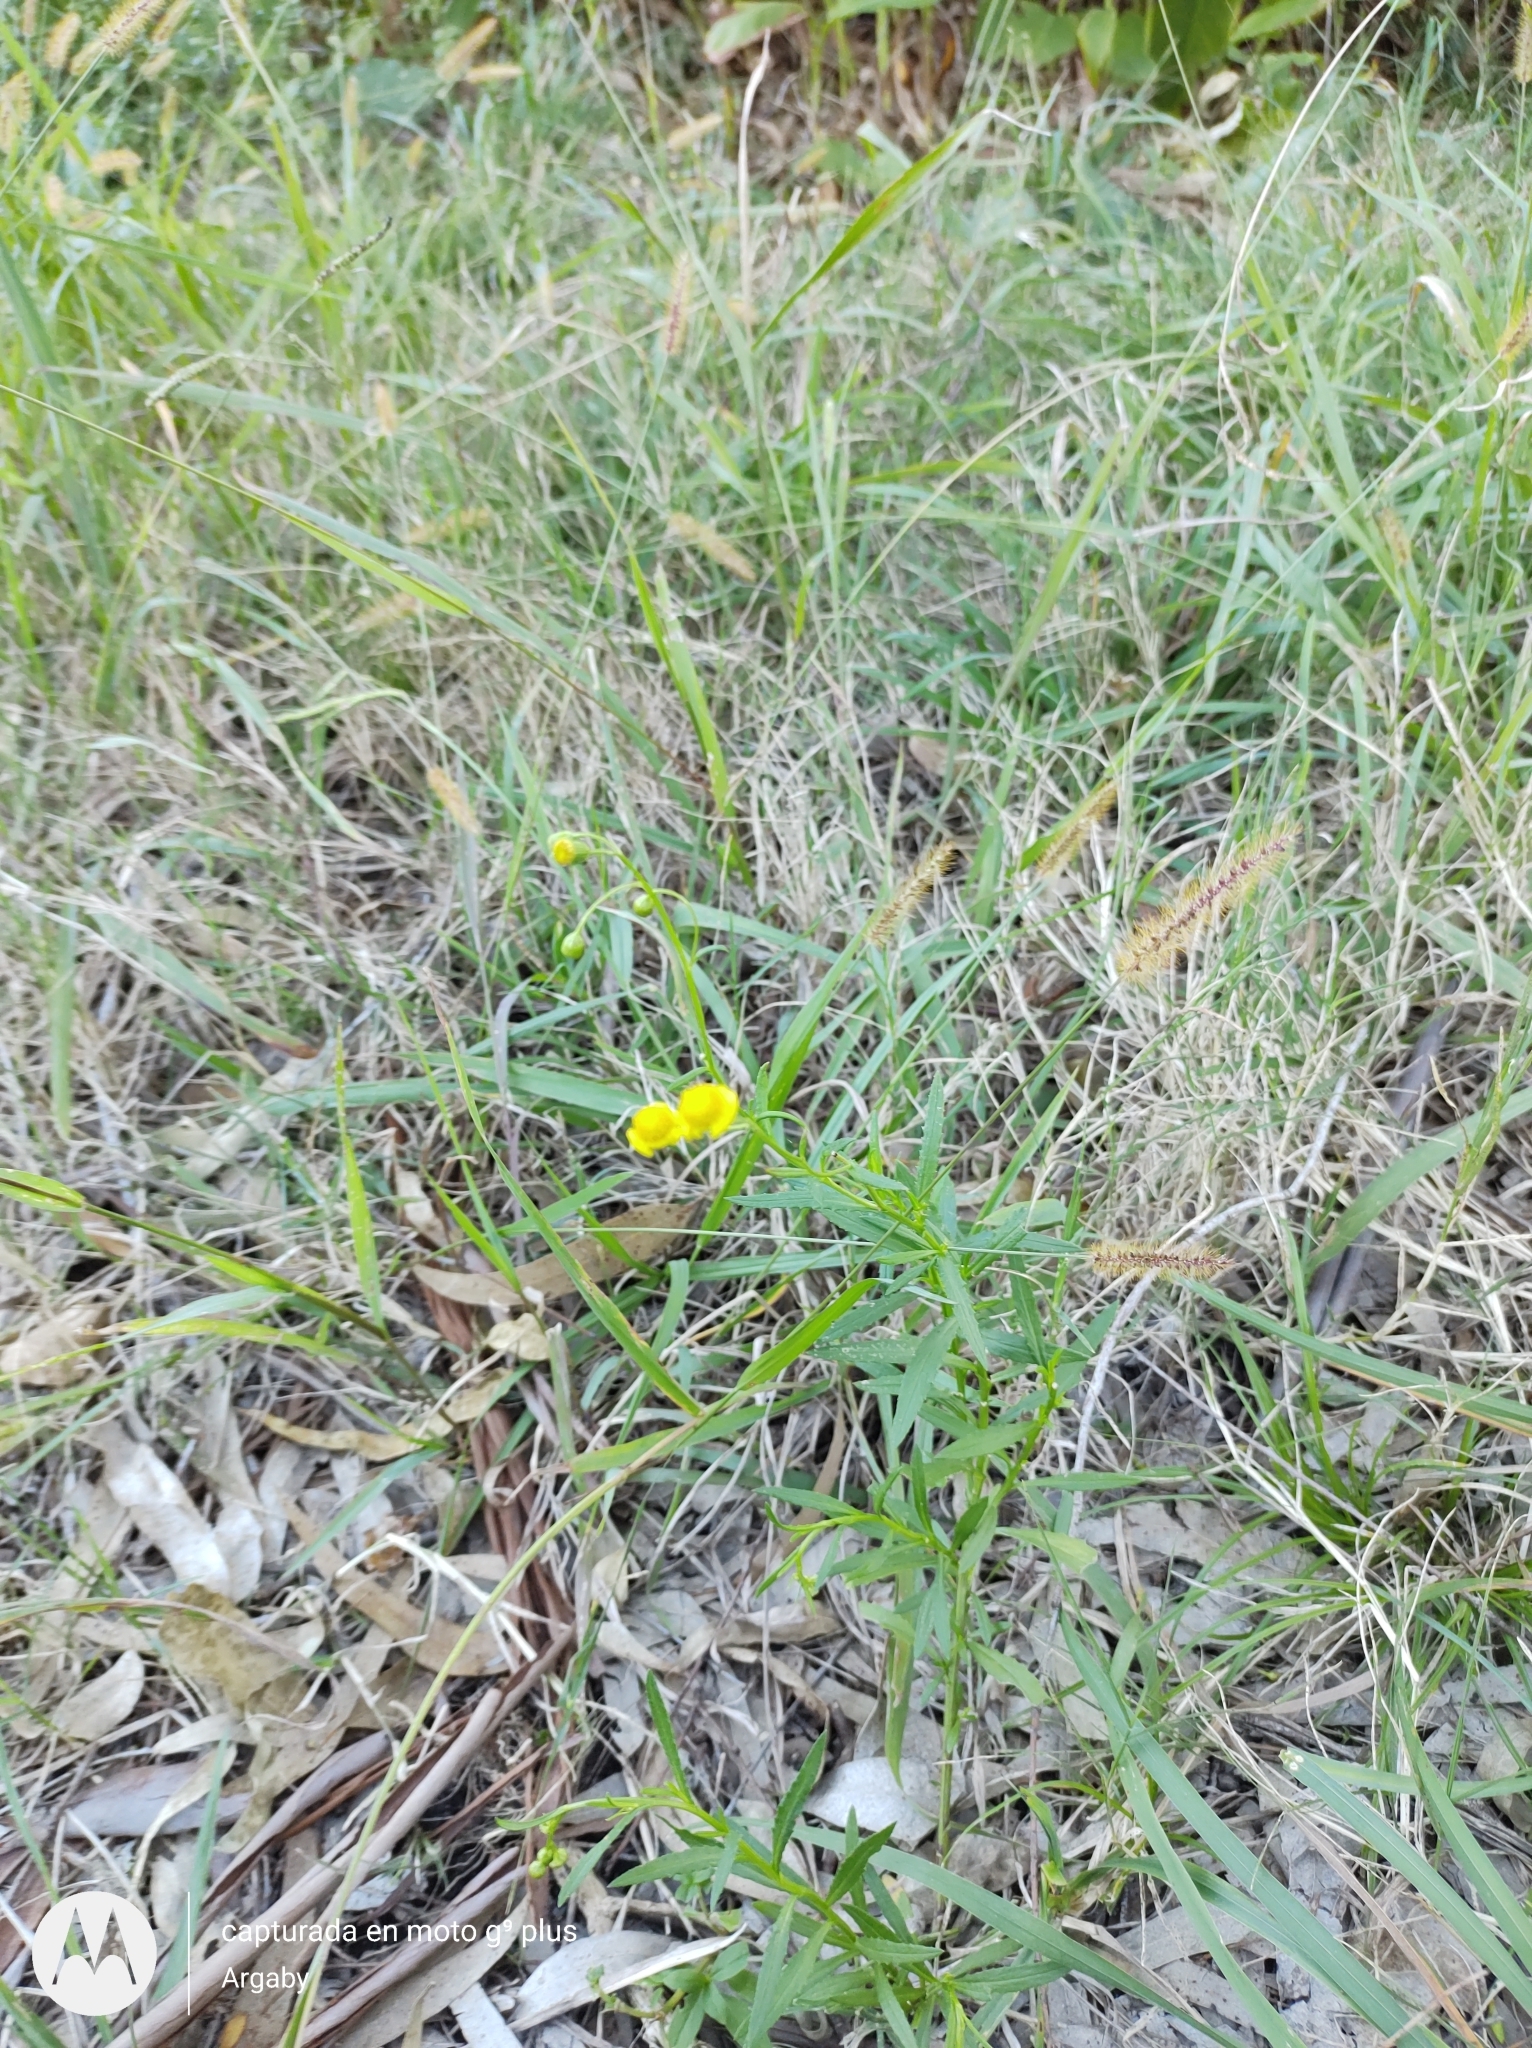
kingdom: Plantae
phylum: Tracheophyta
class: Magnoliopsida
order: Asterales
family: Asteraceae
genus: Senecio
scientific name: Senecio madagascariensis
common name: Madagascar ragwort
